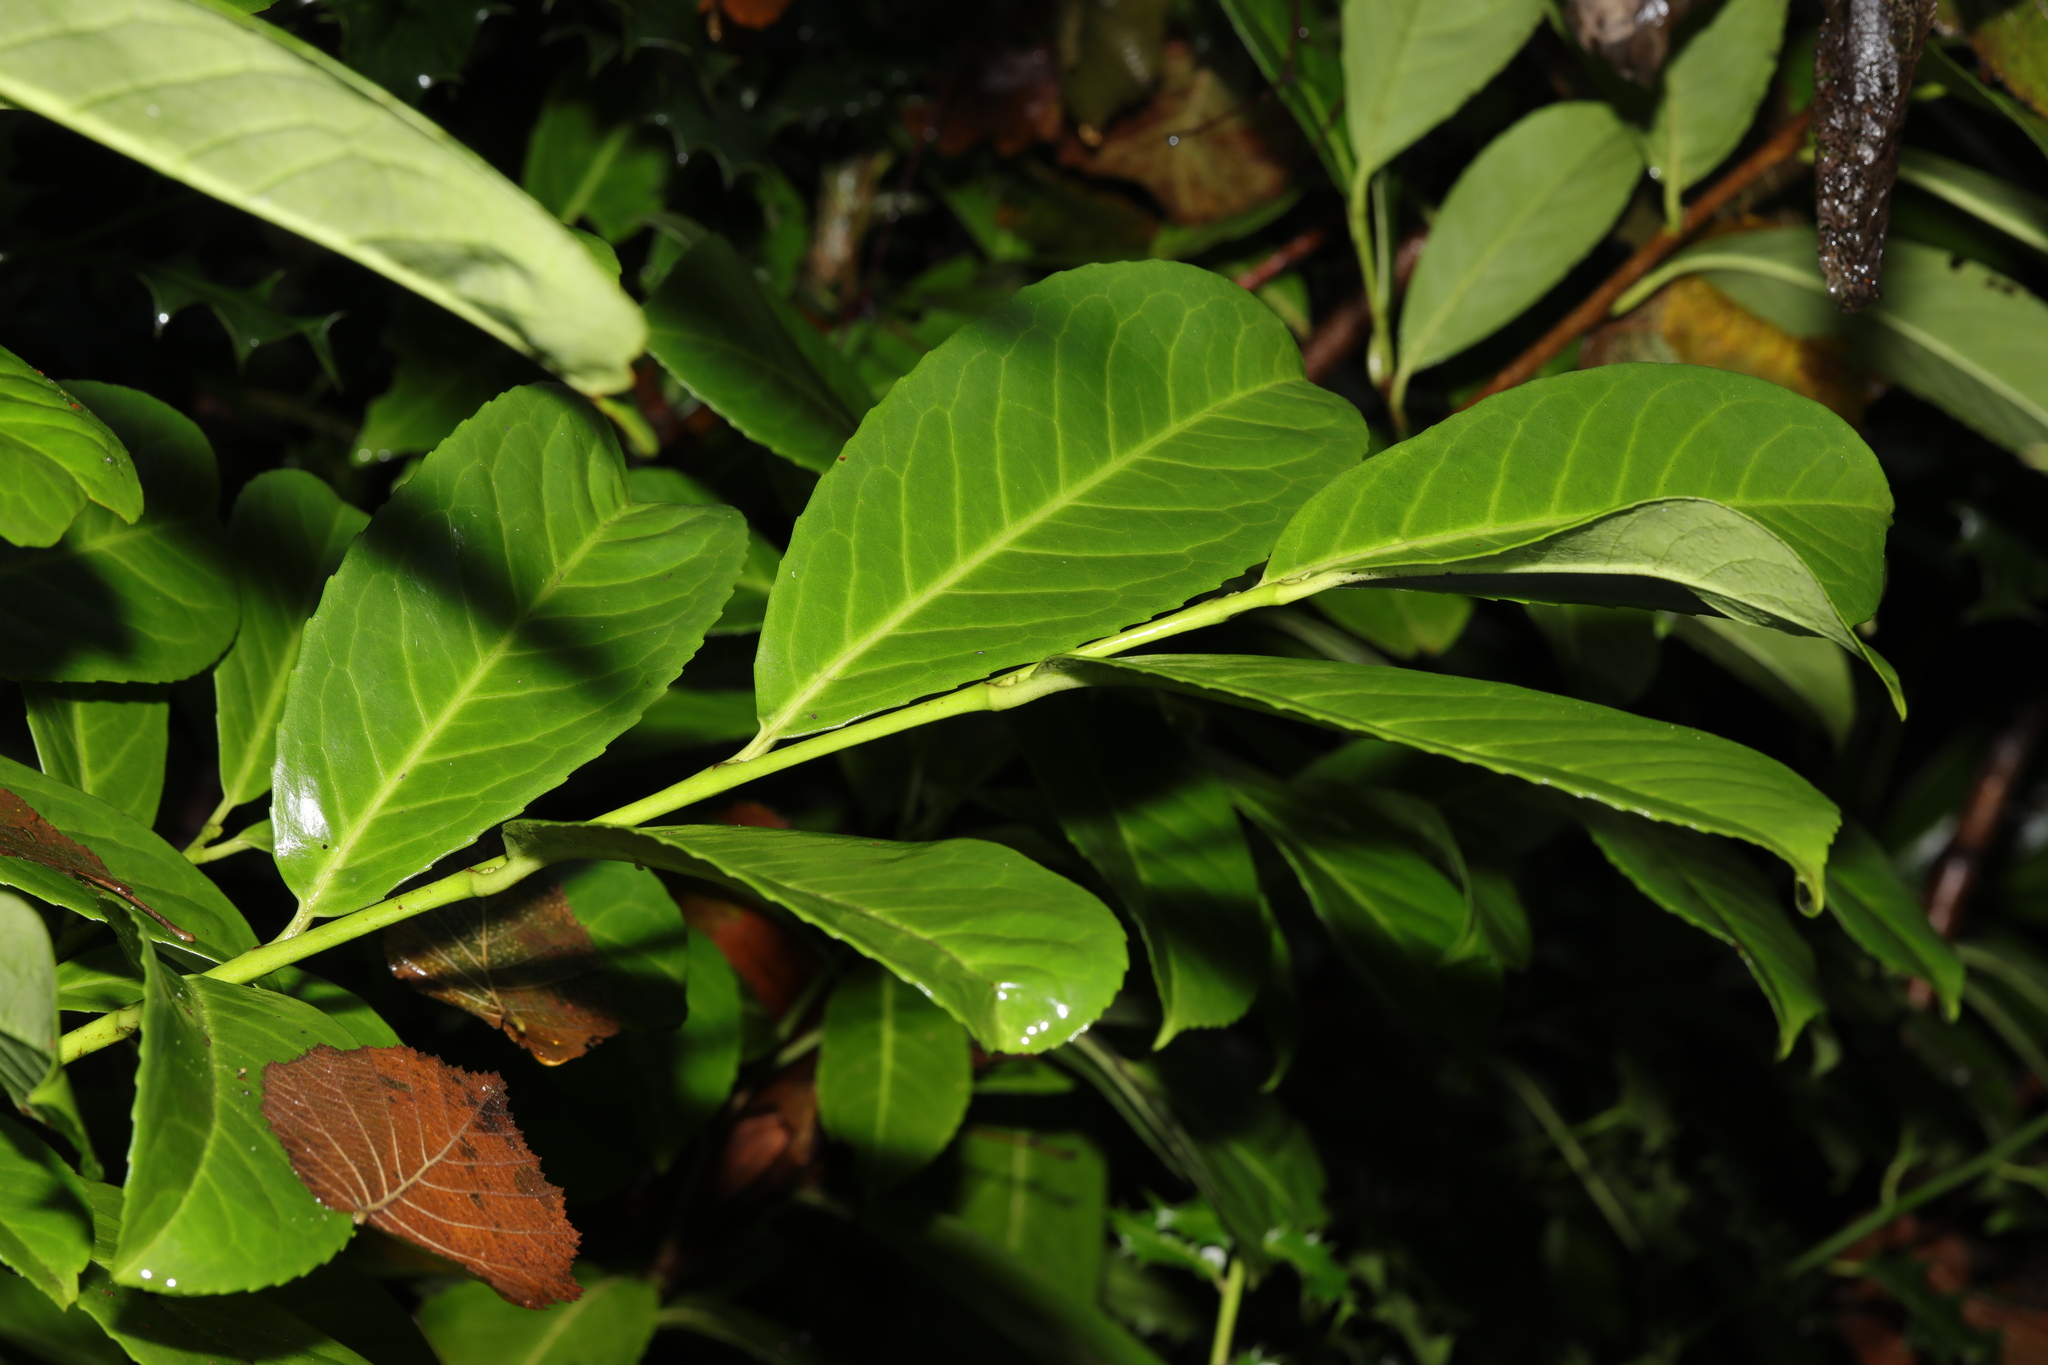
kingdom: Plantae
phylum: Tracheophyta
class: Magnoliopsida
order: Rosales
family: Rosaceae
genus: Prunus
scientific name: Prunus laurocerasus
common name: Cherry laurel
